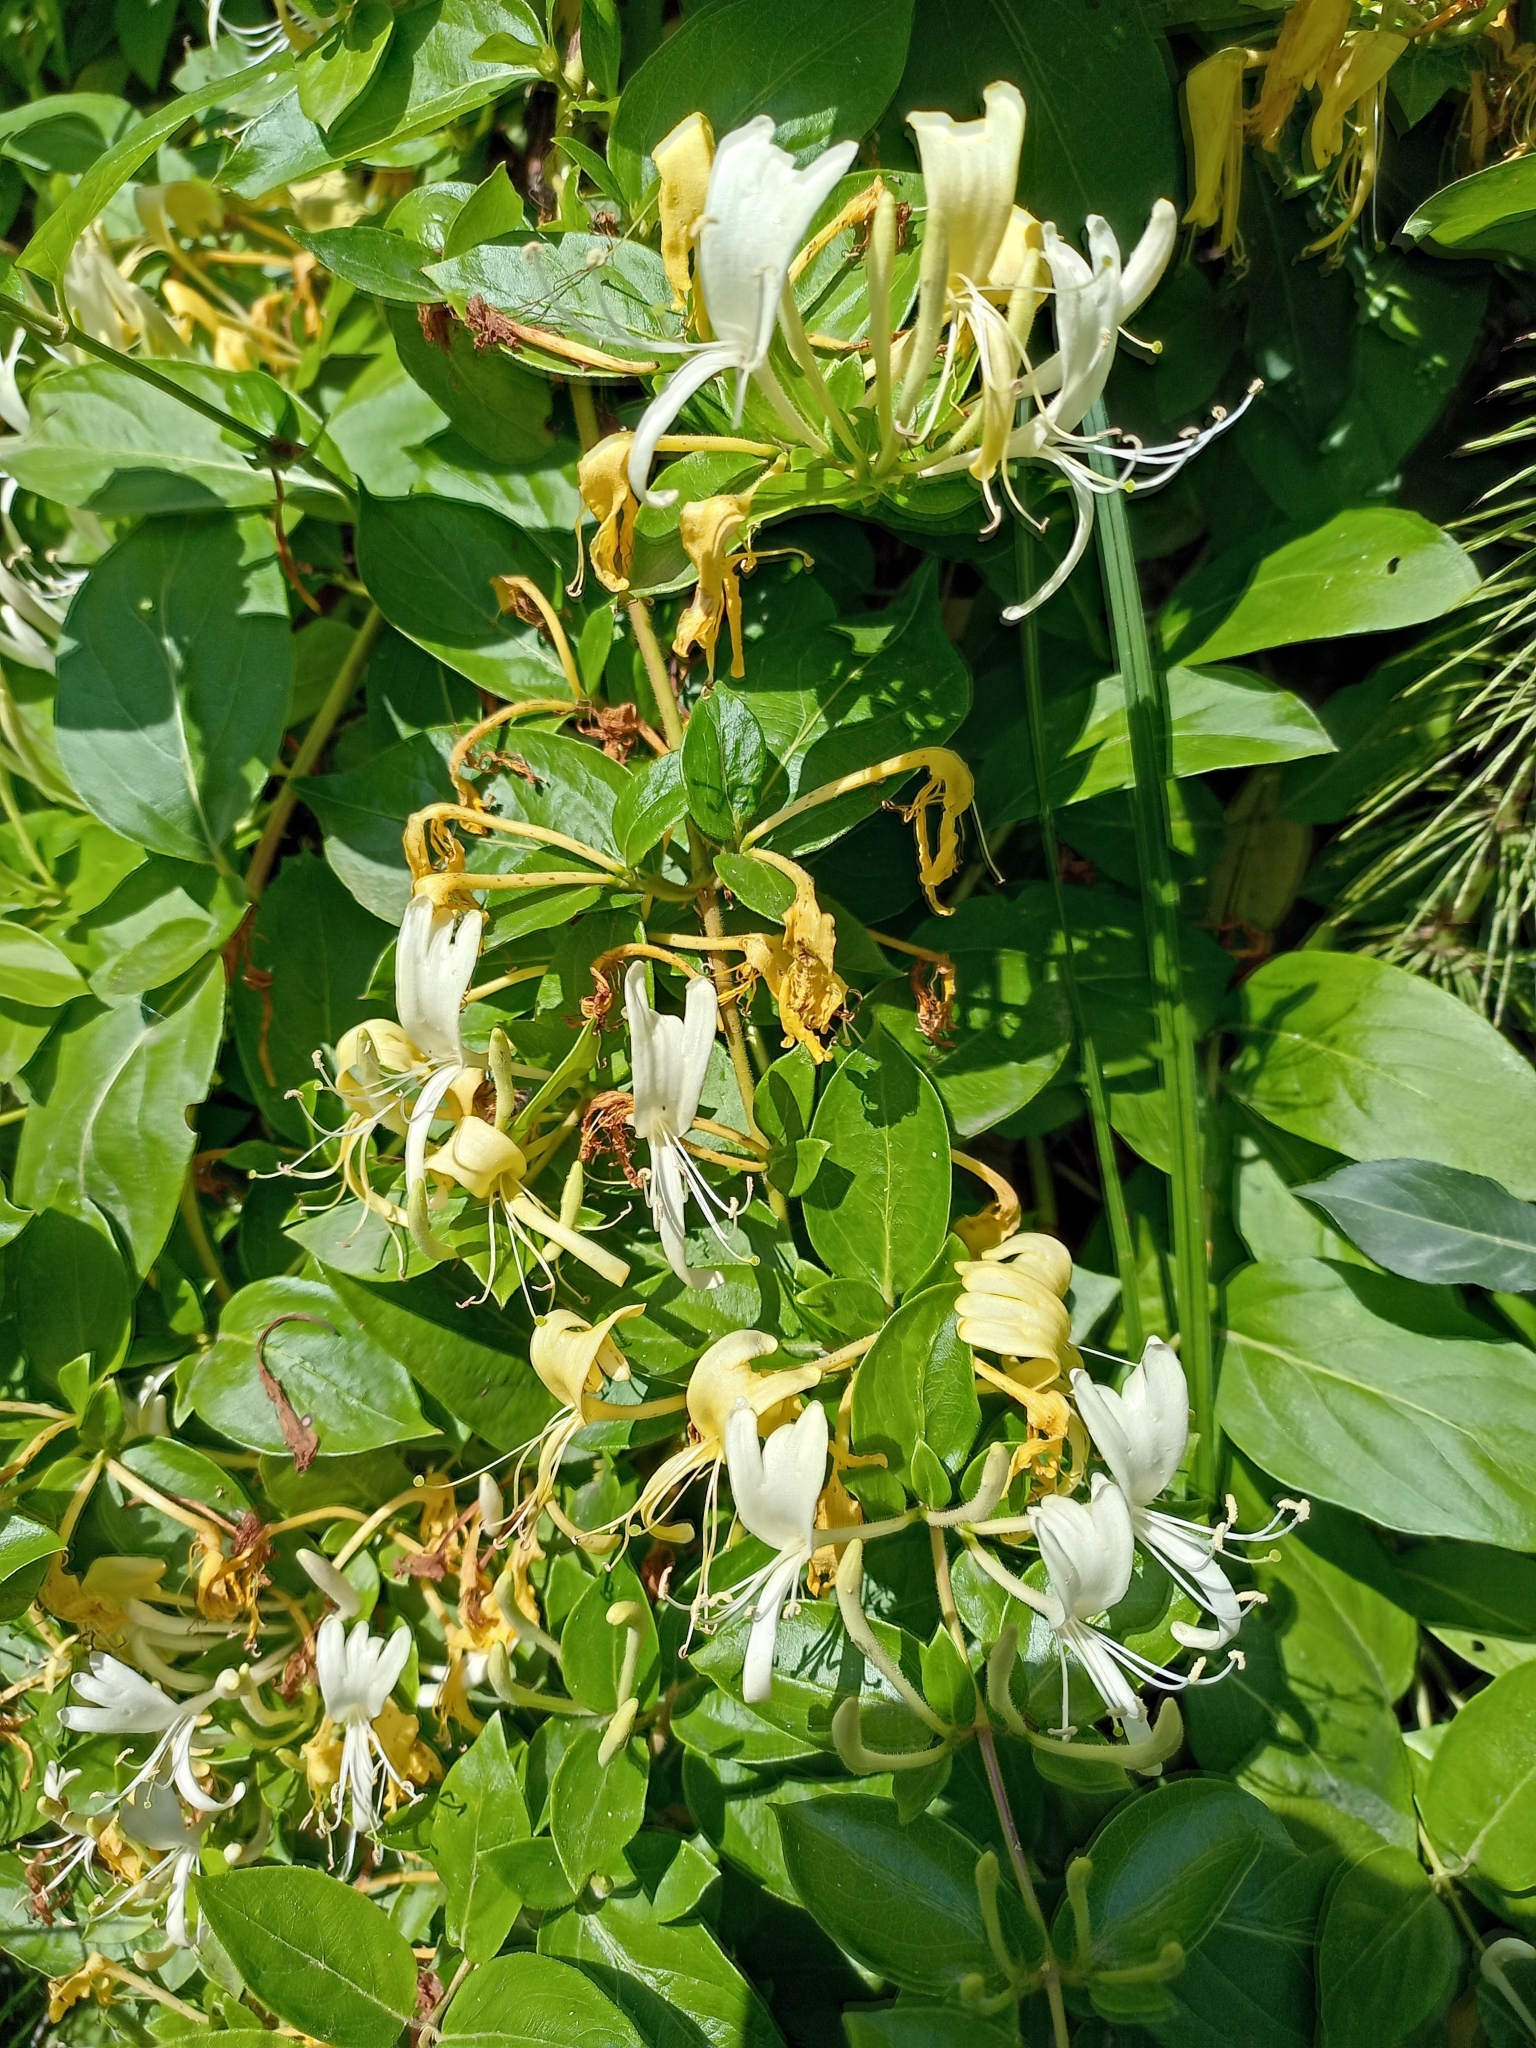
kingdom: Plantae
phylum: Tracheophyta
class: Magnoliopsida
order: Dipsacales
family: Caprifoliaceae
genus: Lonicera
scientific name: Lonicera japonica
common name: Japanese honeysuckle
